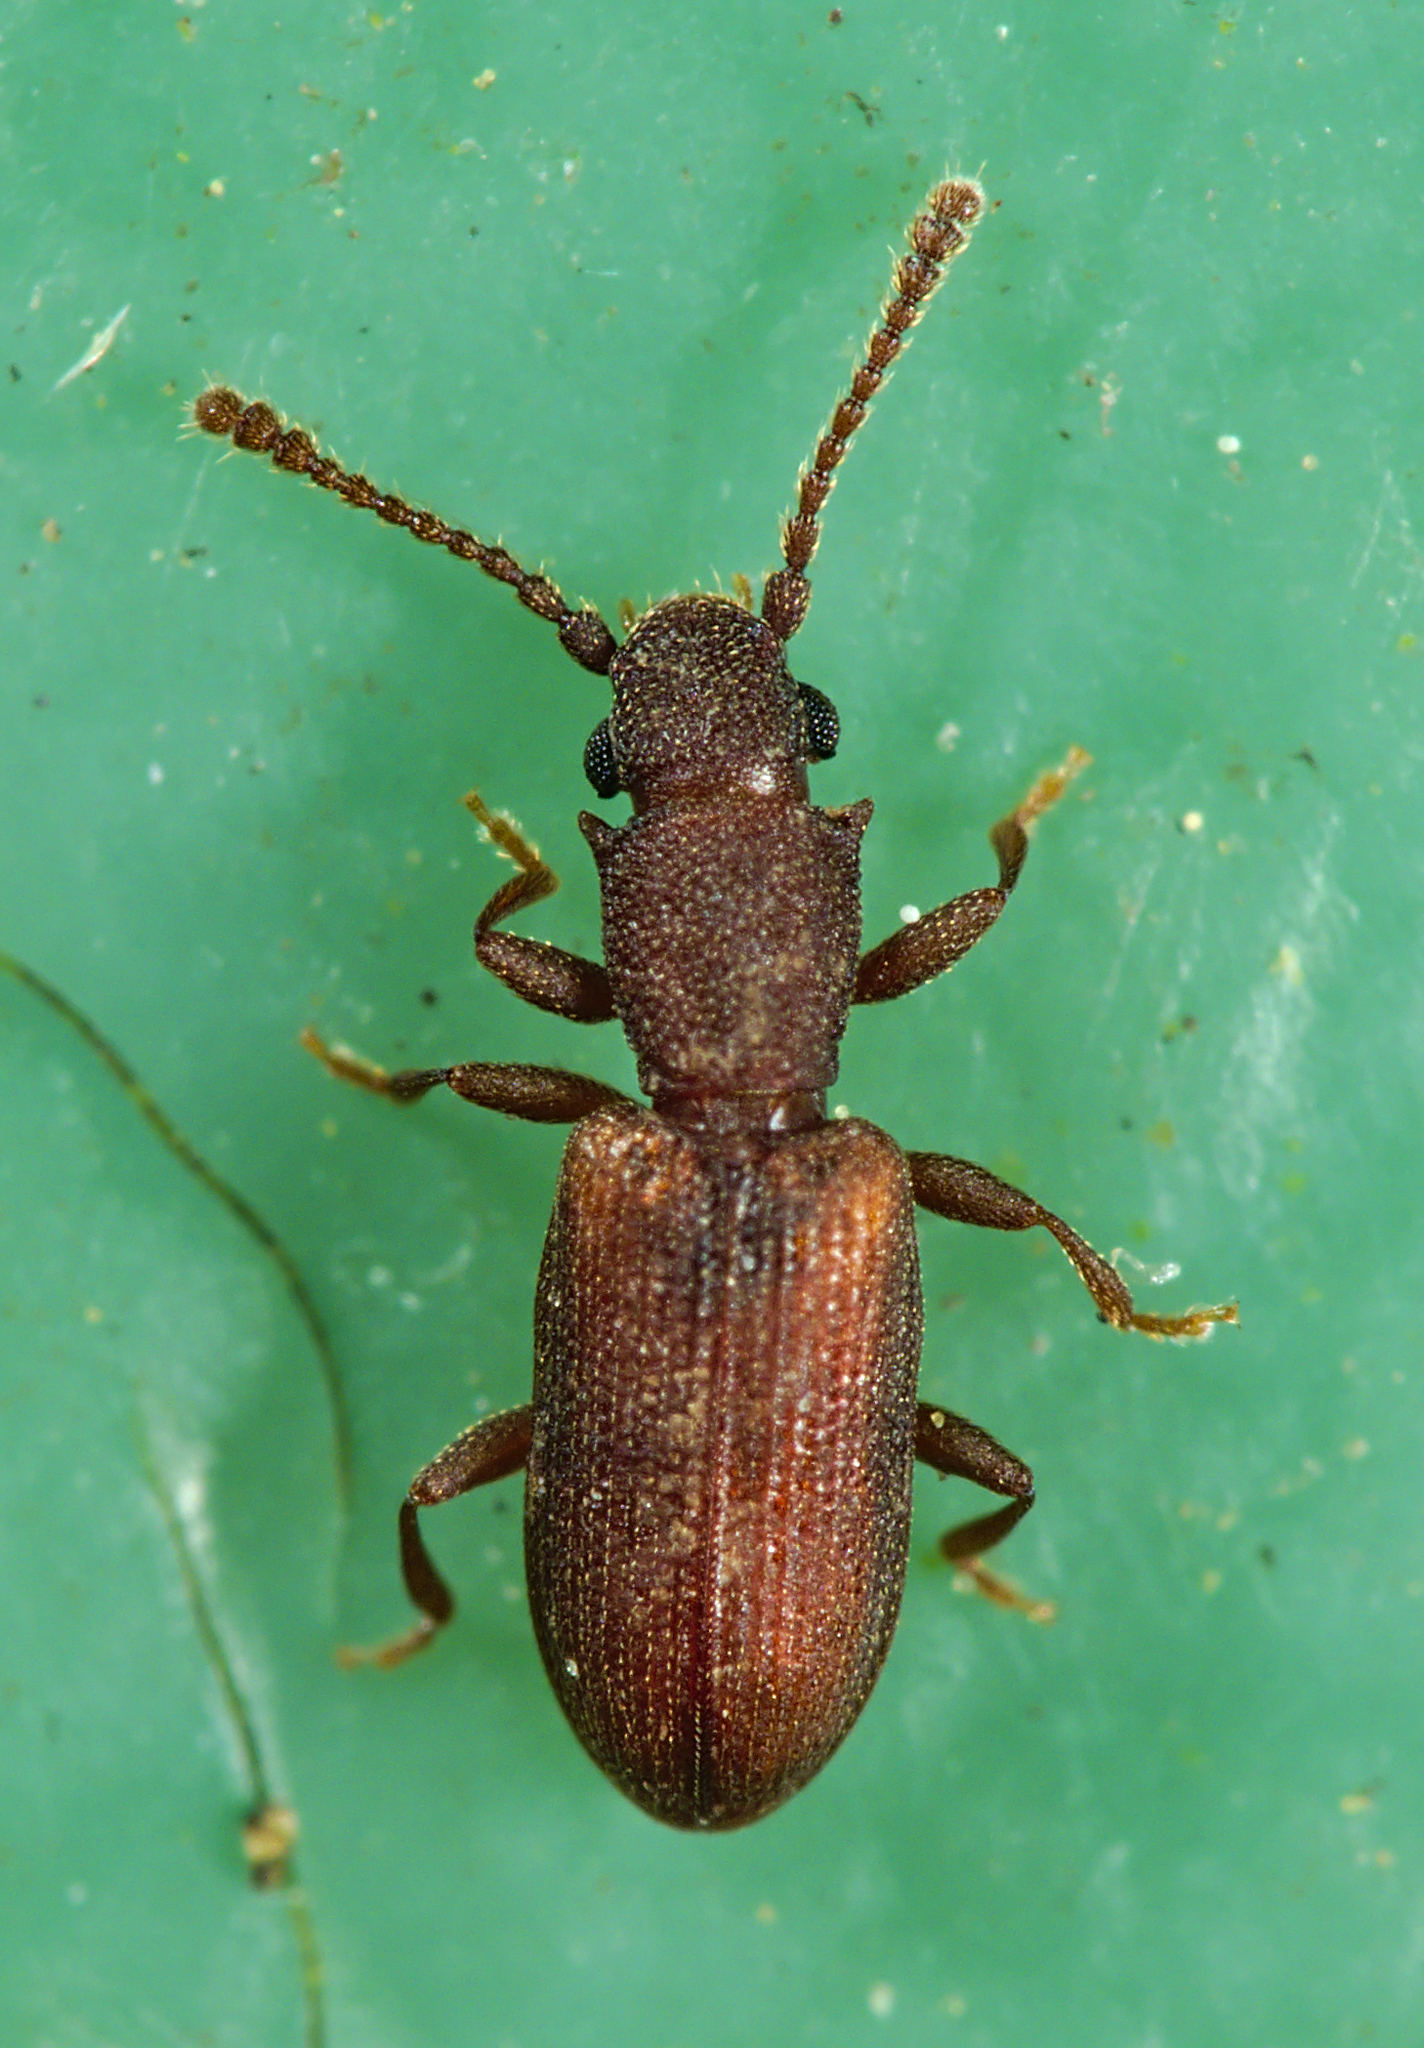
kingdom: Animalia
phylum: Arthropoda
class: Insecta
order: Coleoptera
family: Silvanidae
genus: Silvanoprus
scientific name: Silvanoprus fagi
